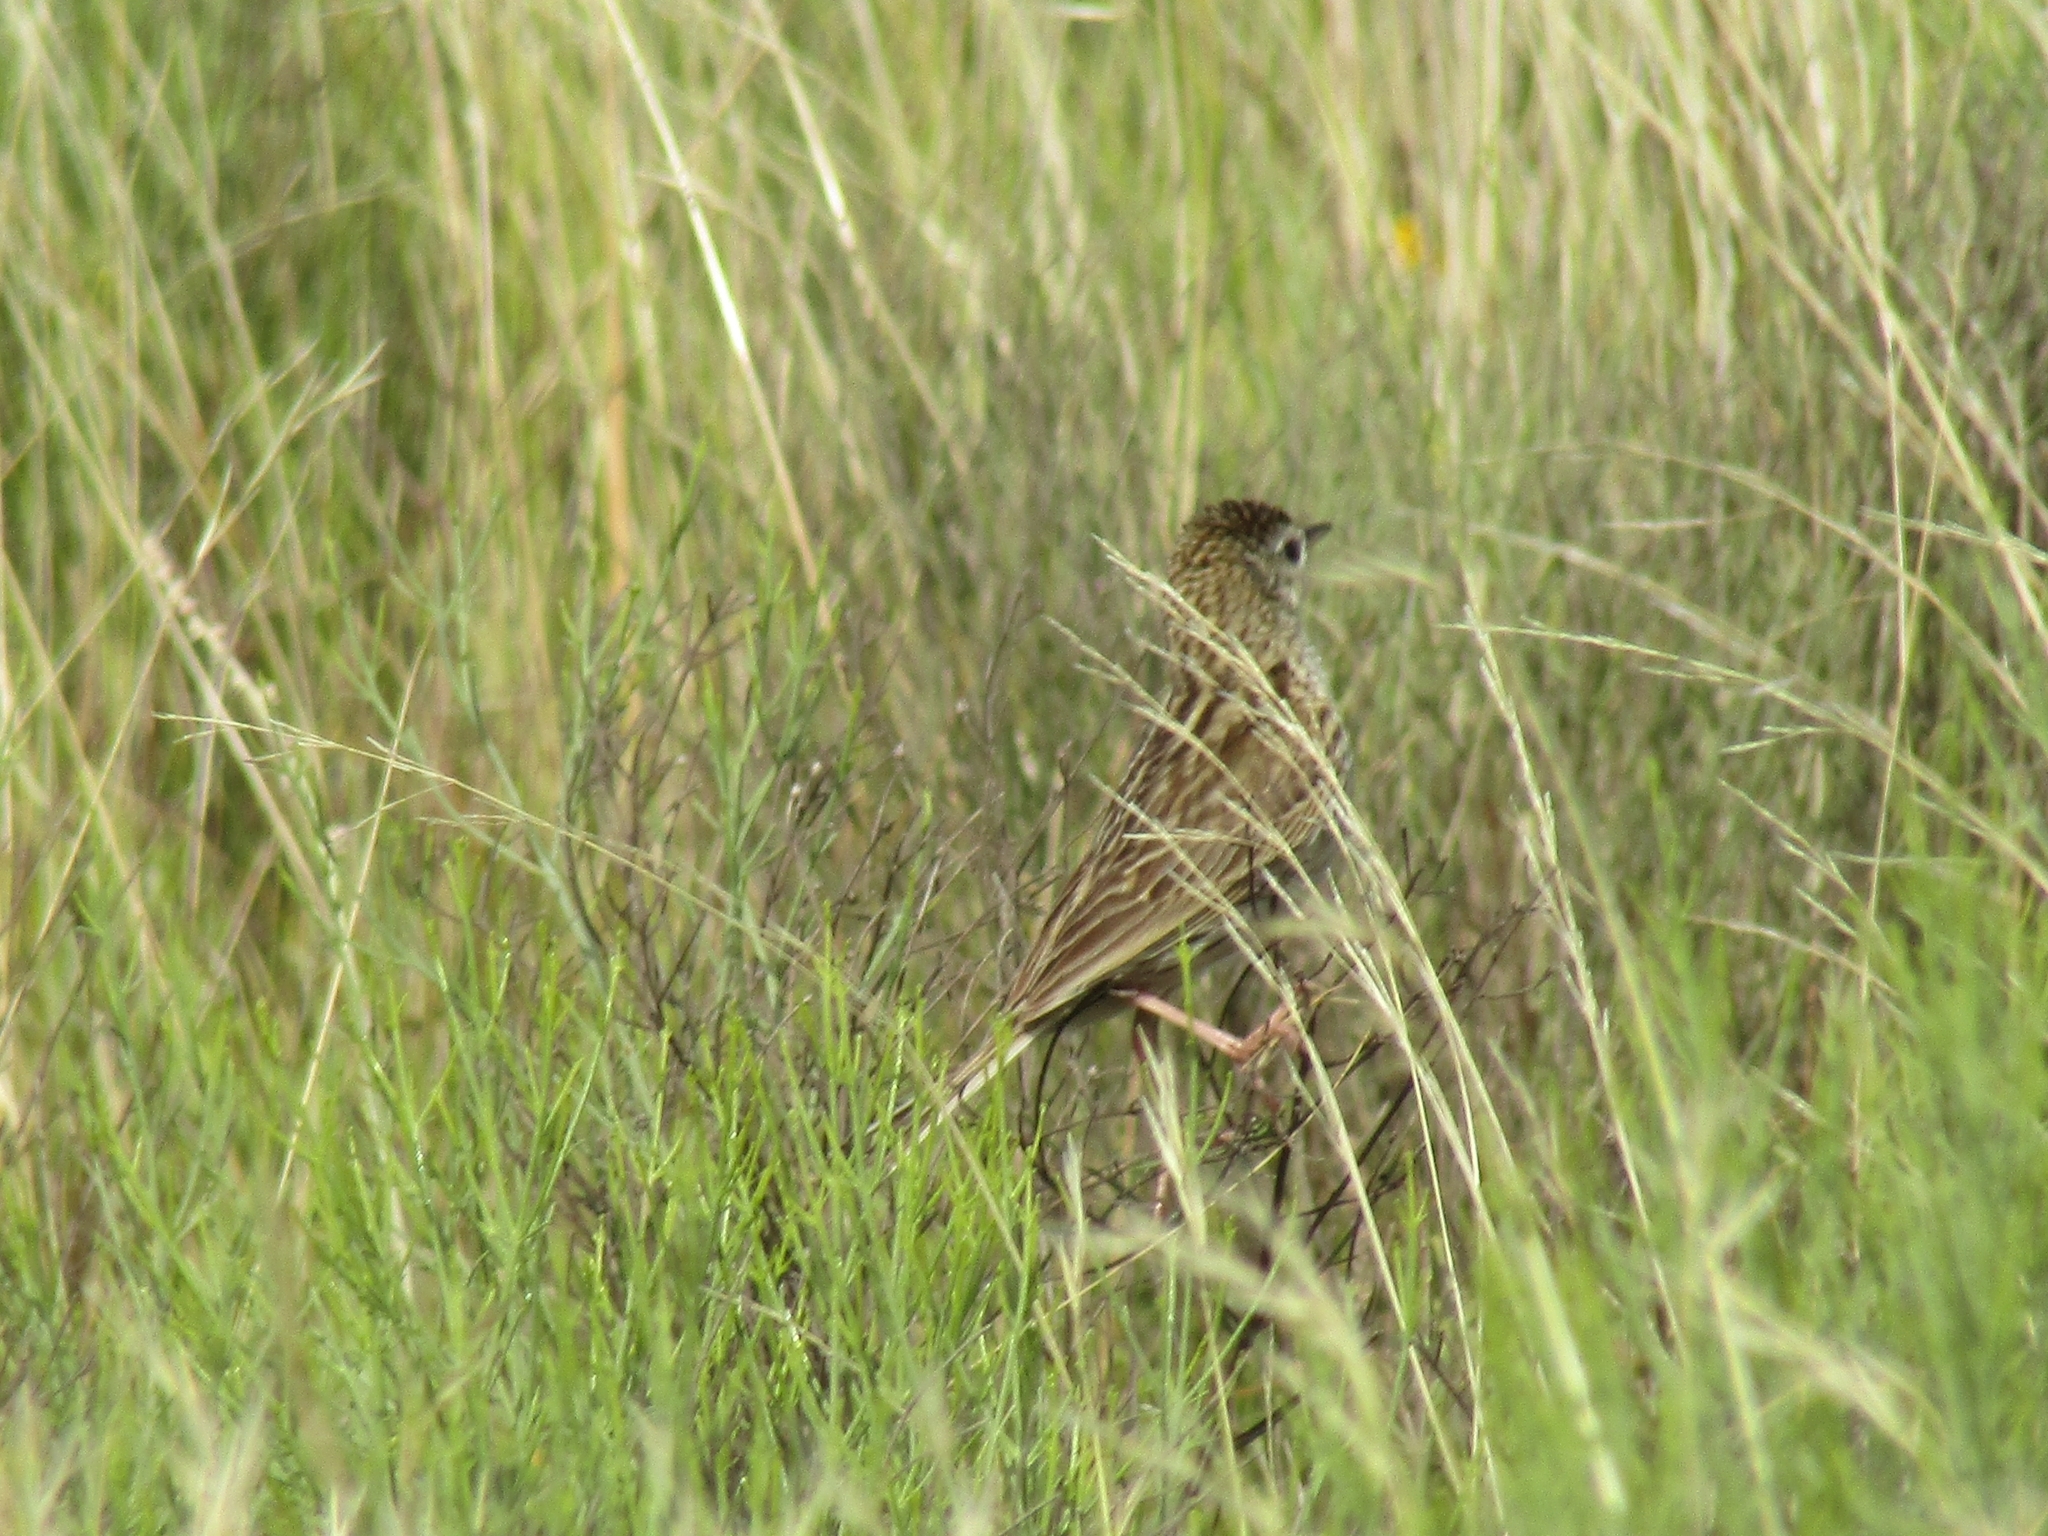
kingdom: Animalia
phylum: Chordata
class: Aves
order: Passeriformes
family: Motacillidae
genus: Anthus
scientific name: Anthus correndera
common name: Correndera pipit
